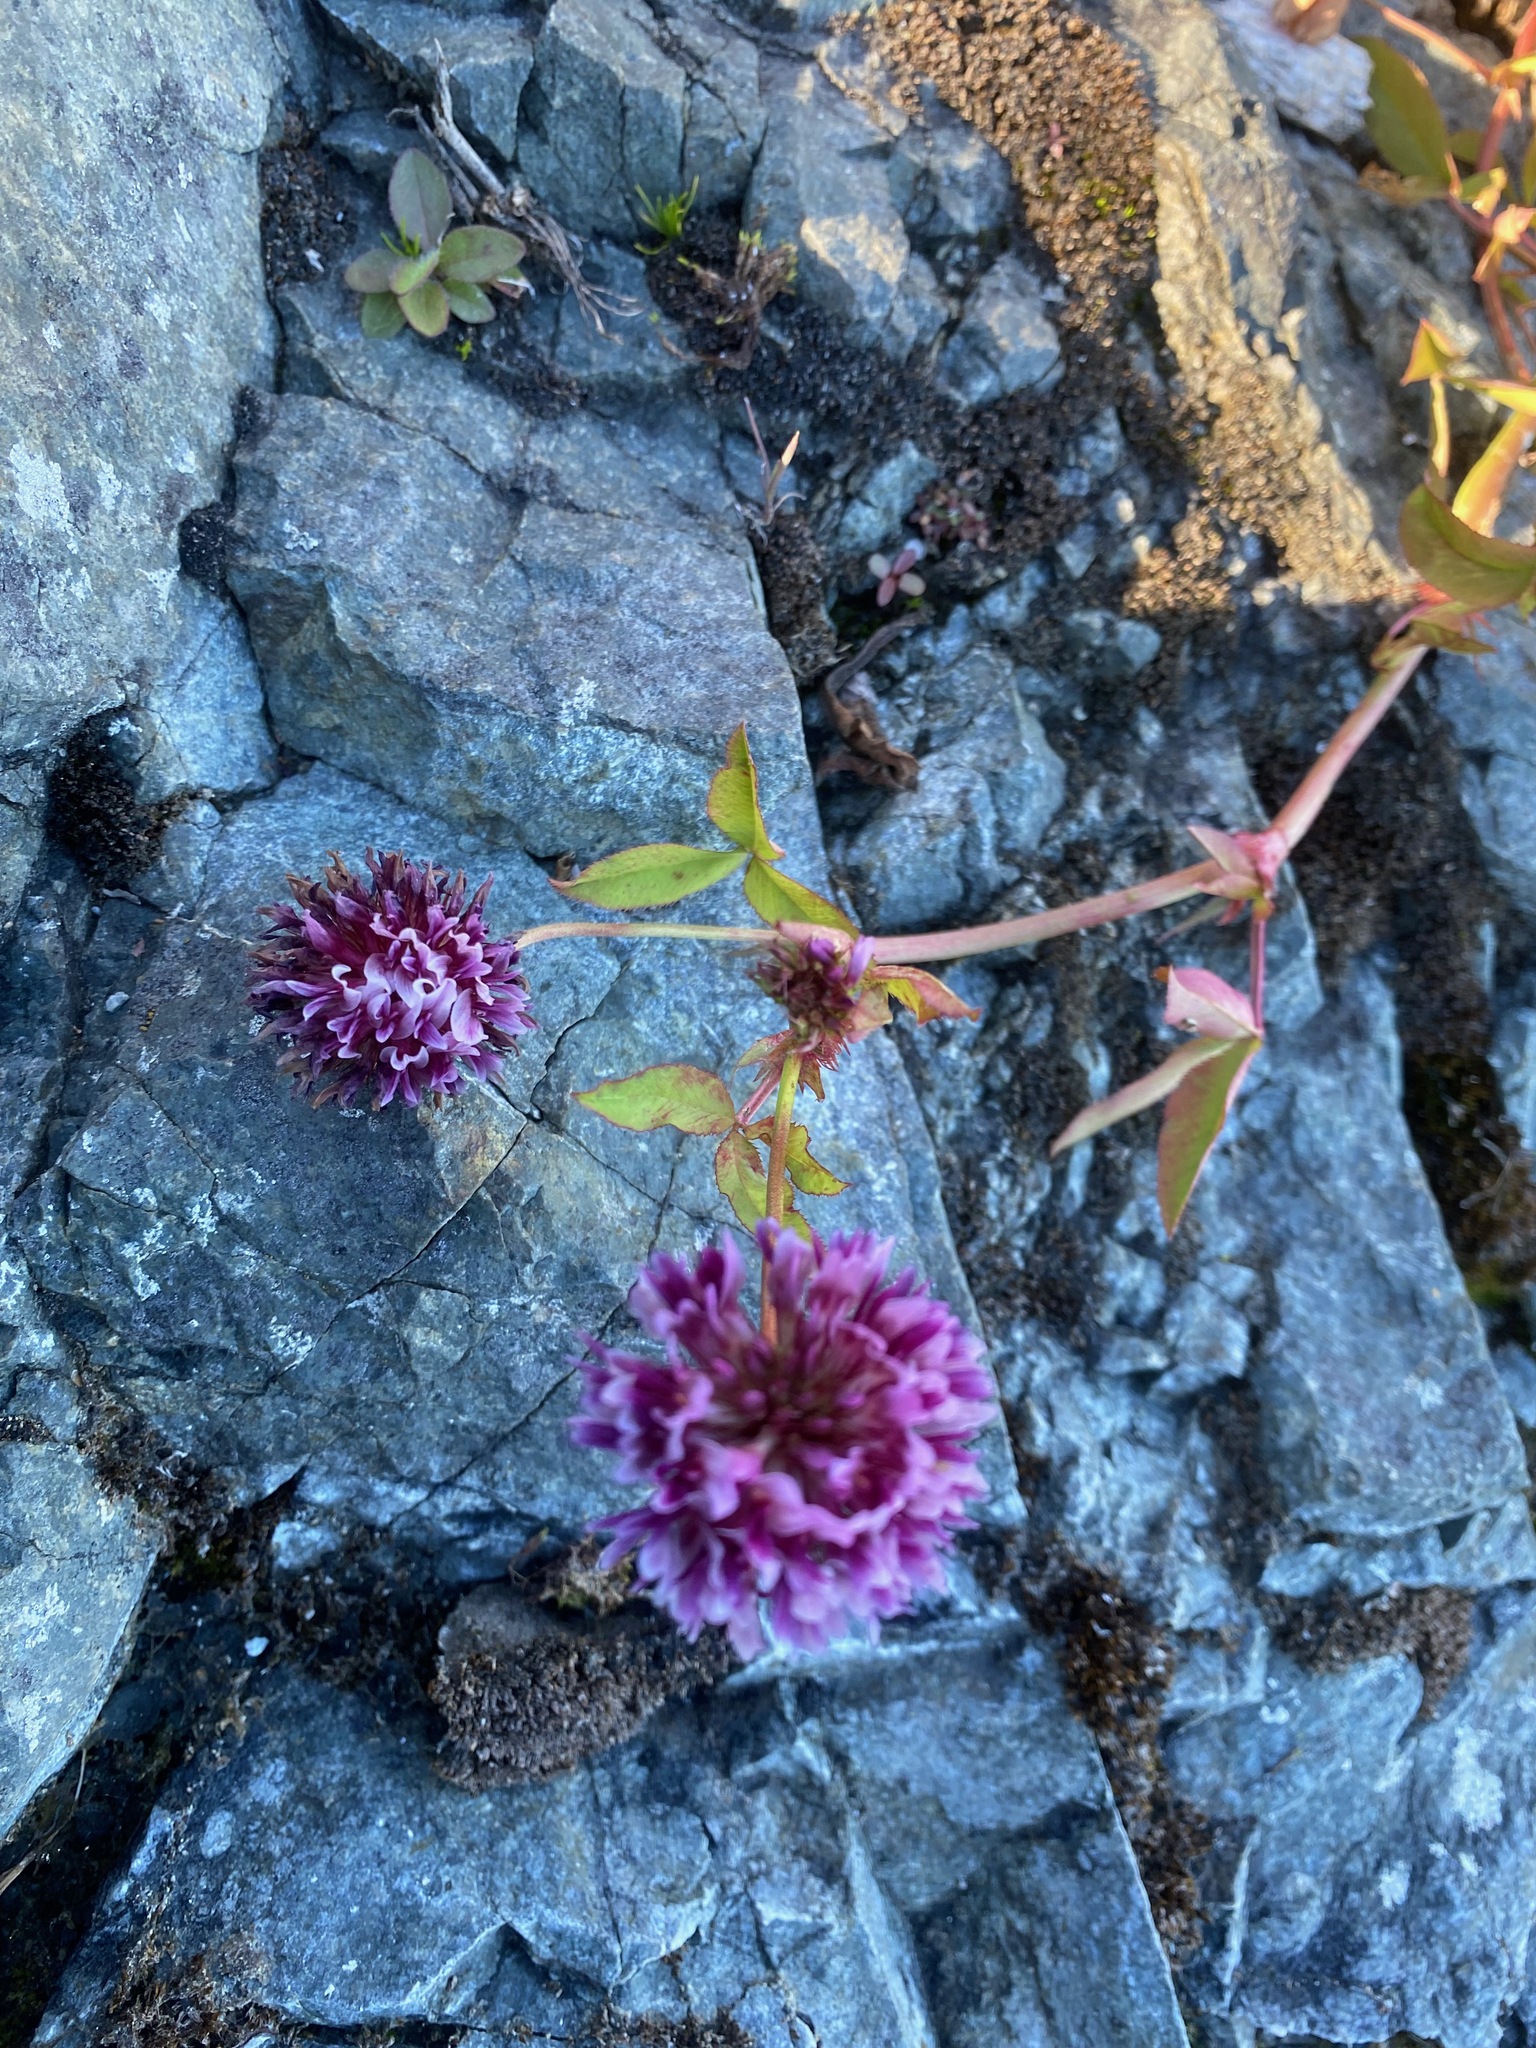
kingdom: Plantae
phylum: Tracheophyta
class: Magnoliopsida
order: Fabales
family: Fabaceae
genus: Trifolium
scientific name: Trifolium wormskioldii
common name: Springbank clover
